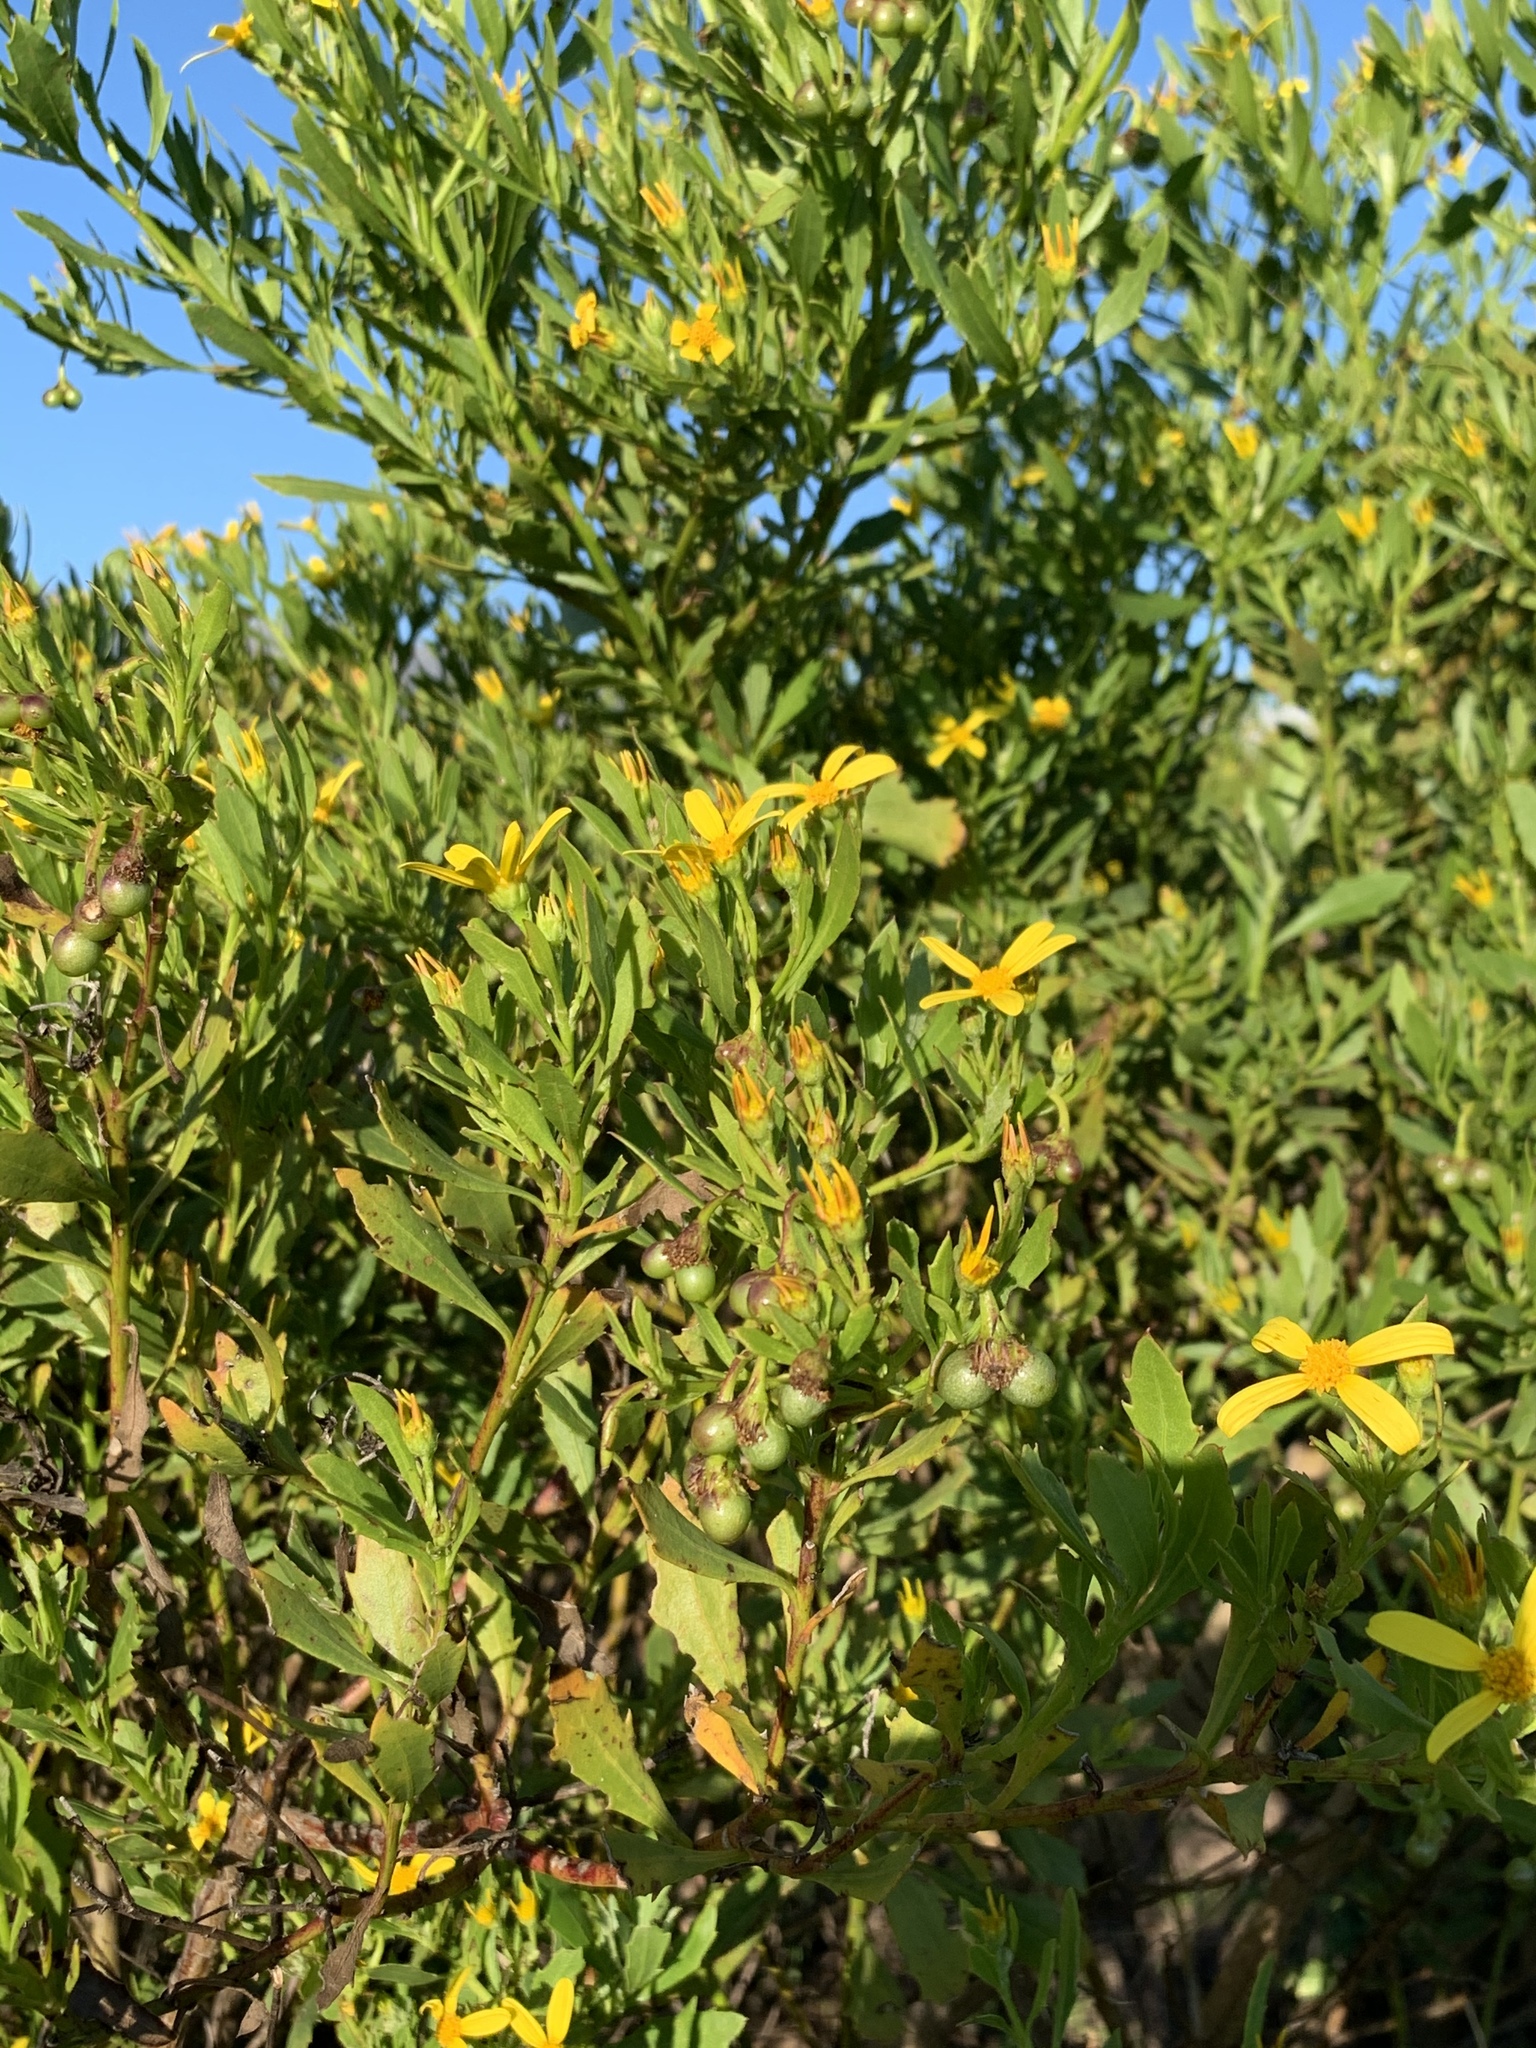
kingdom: Plantae
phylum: Tracheophyta
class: Magnoliopsida
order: Asterales
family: Asteraceae
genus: Osteospermum
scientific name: Osteospermum moniliferum
